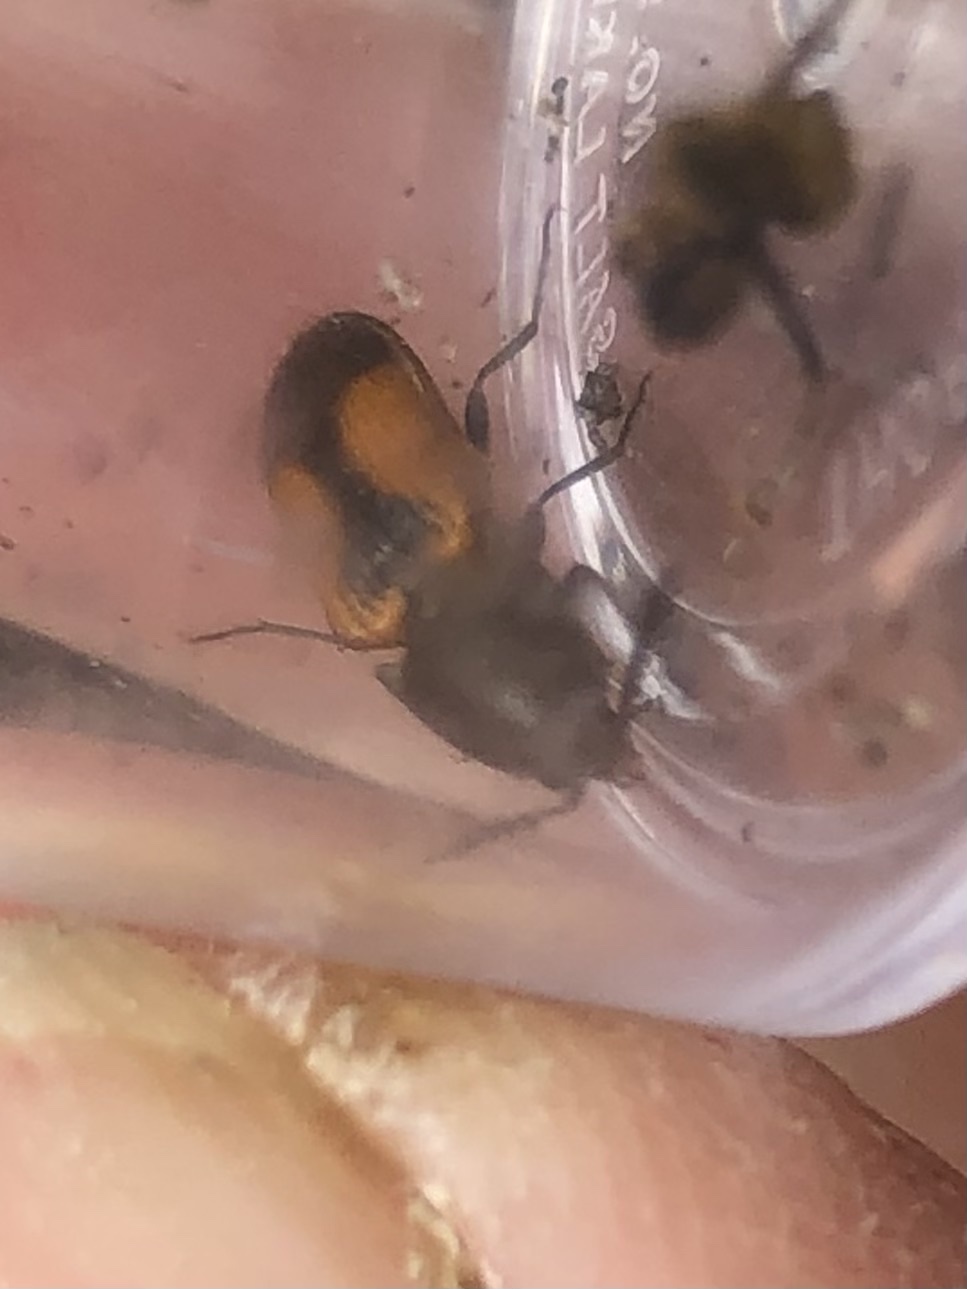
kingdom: Animalia
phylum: Arthropoda
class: Insecta
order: Coleoptera
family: Chrysomelidae
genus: Stator
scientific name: Stator limbatus
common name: Leaf beetle
